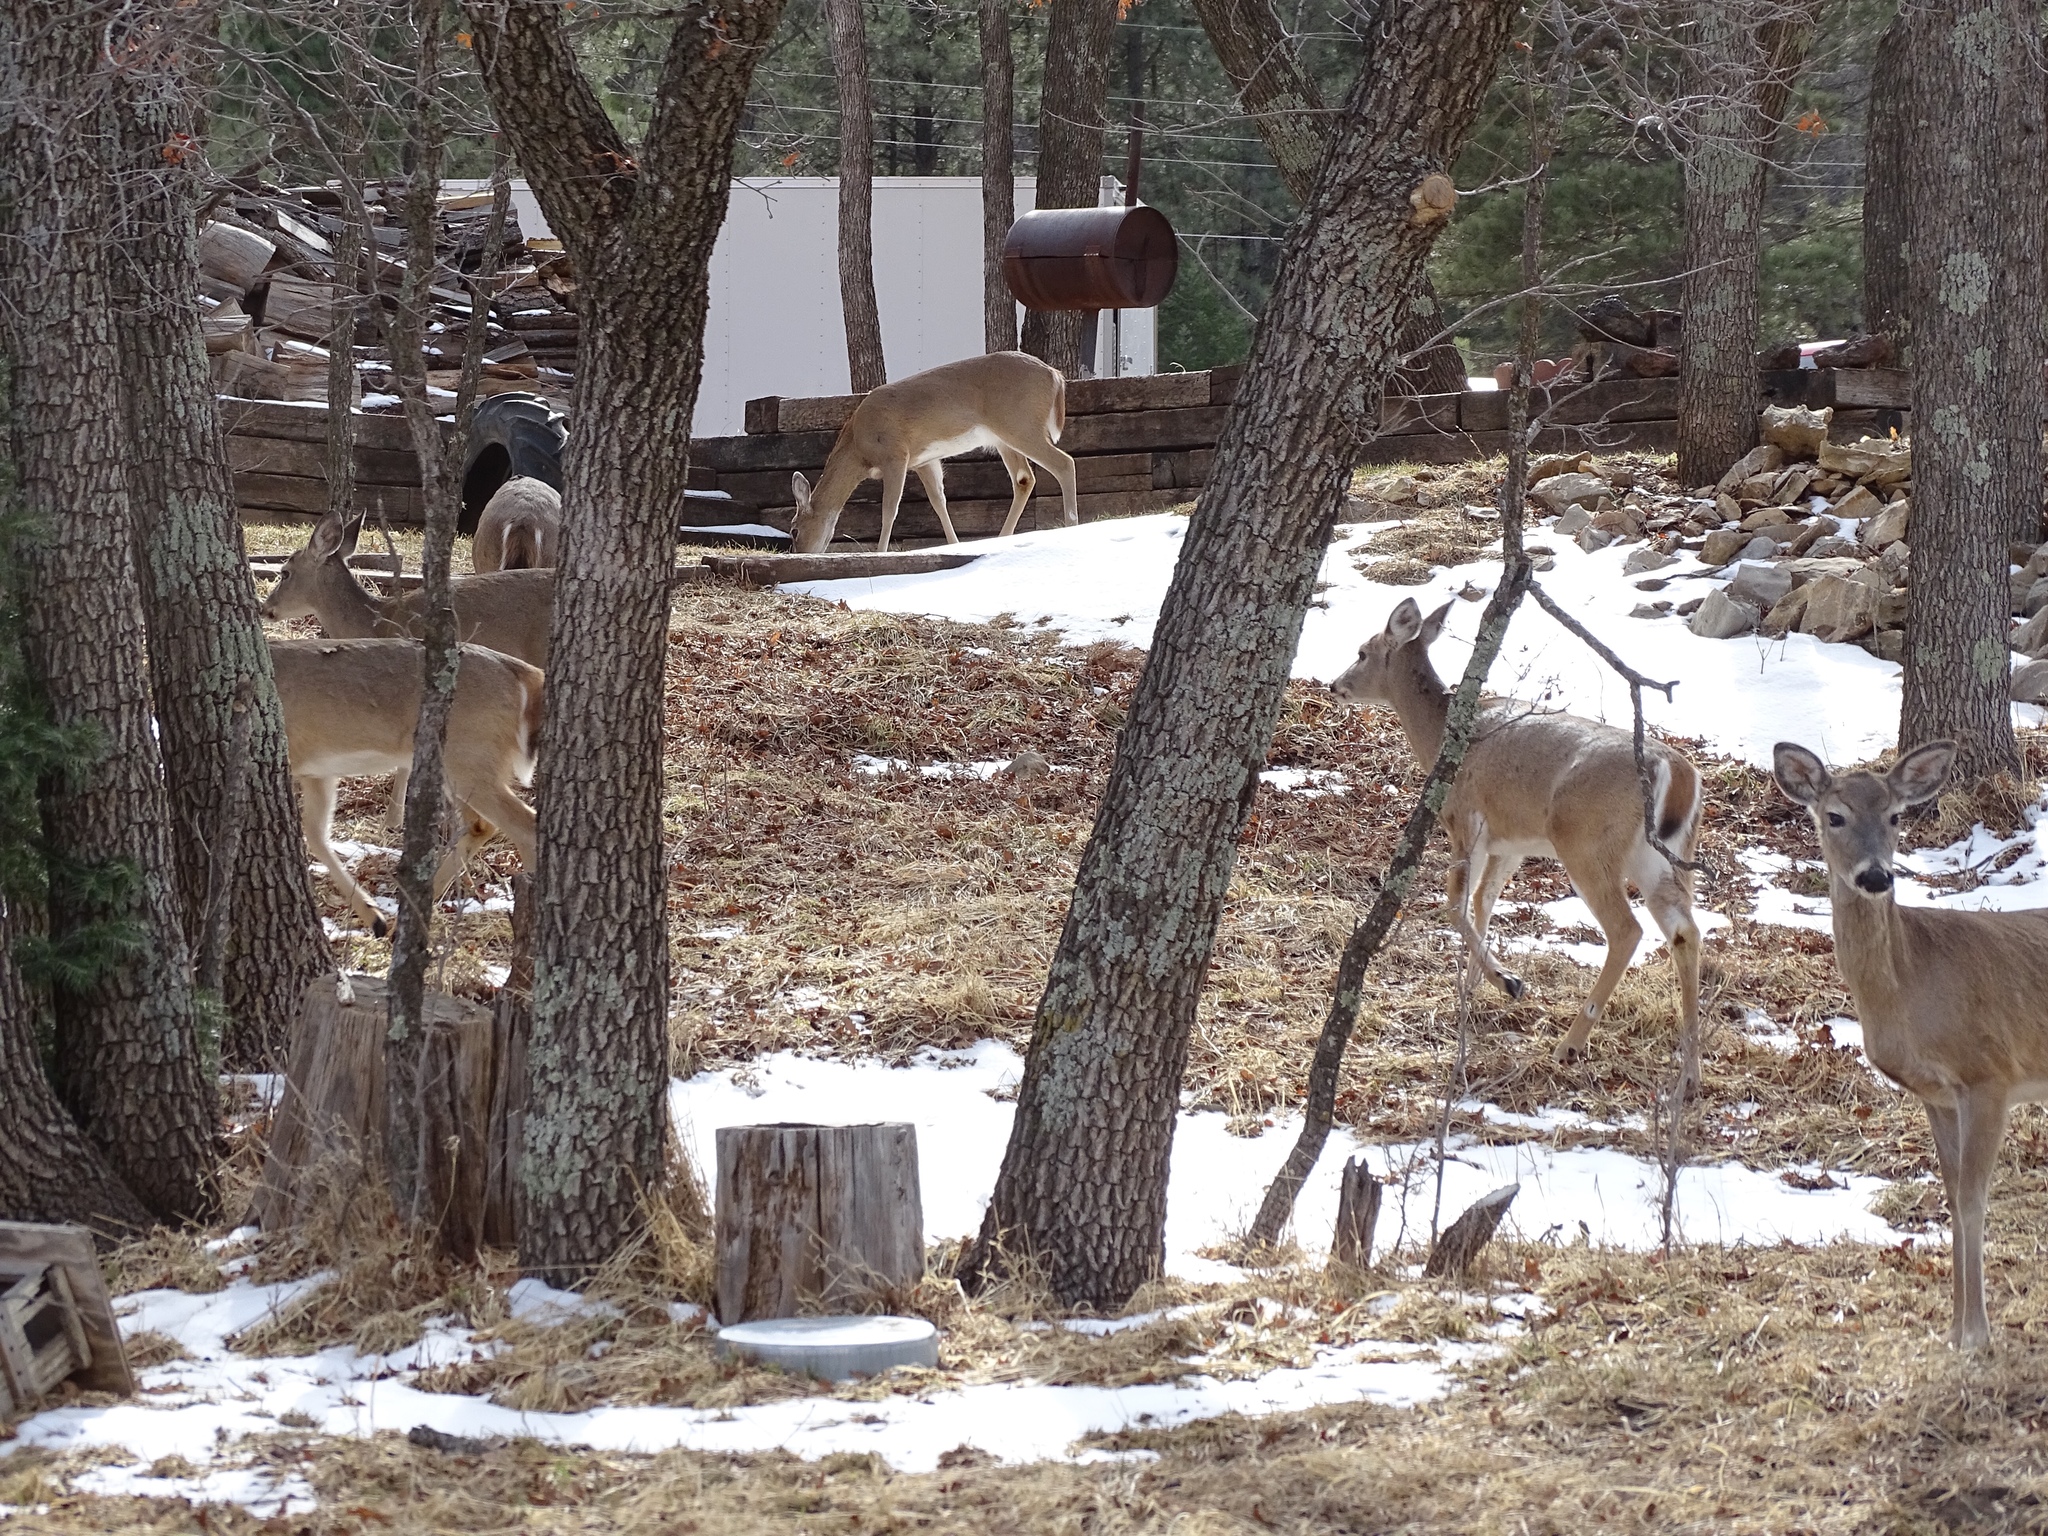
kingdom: Animalia
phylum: Chordata
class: Mammalia
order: Artiodactyla
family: Cervidae
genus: Odocoileus
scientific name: Odocoileus virginianus
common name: White-tailed deer
